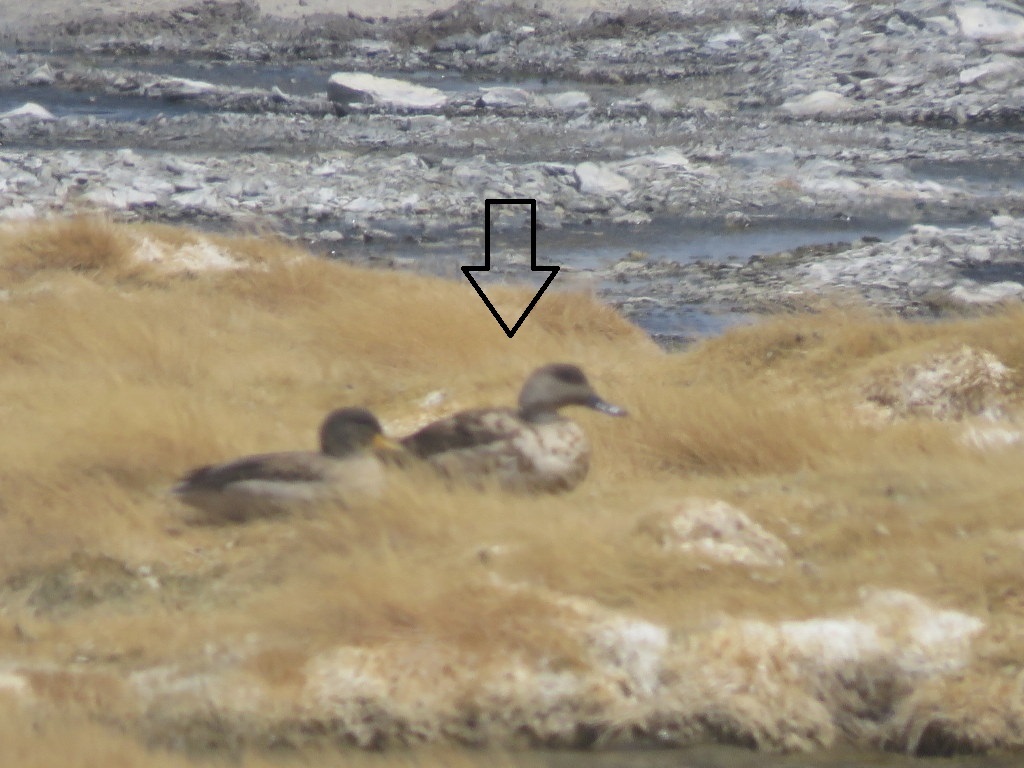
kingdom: Animalia
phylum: Chordata
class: Aves
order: Anseriformes
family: Anatidae
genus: Lophonetta
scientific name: Lophonetta specularioides
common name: Crested duck
